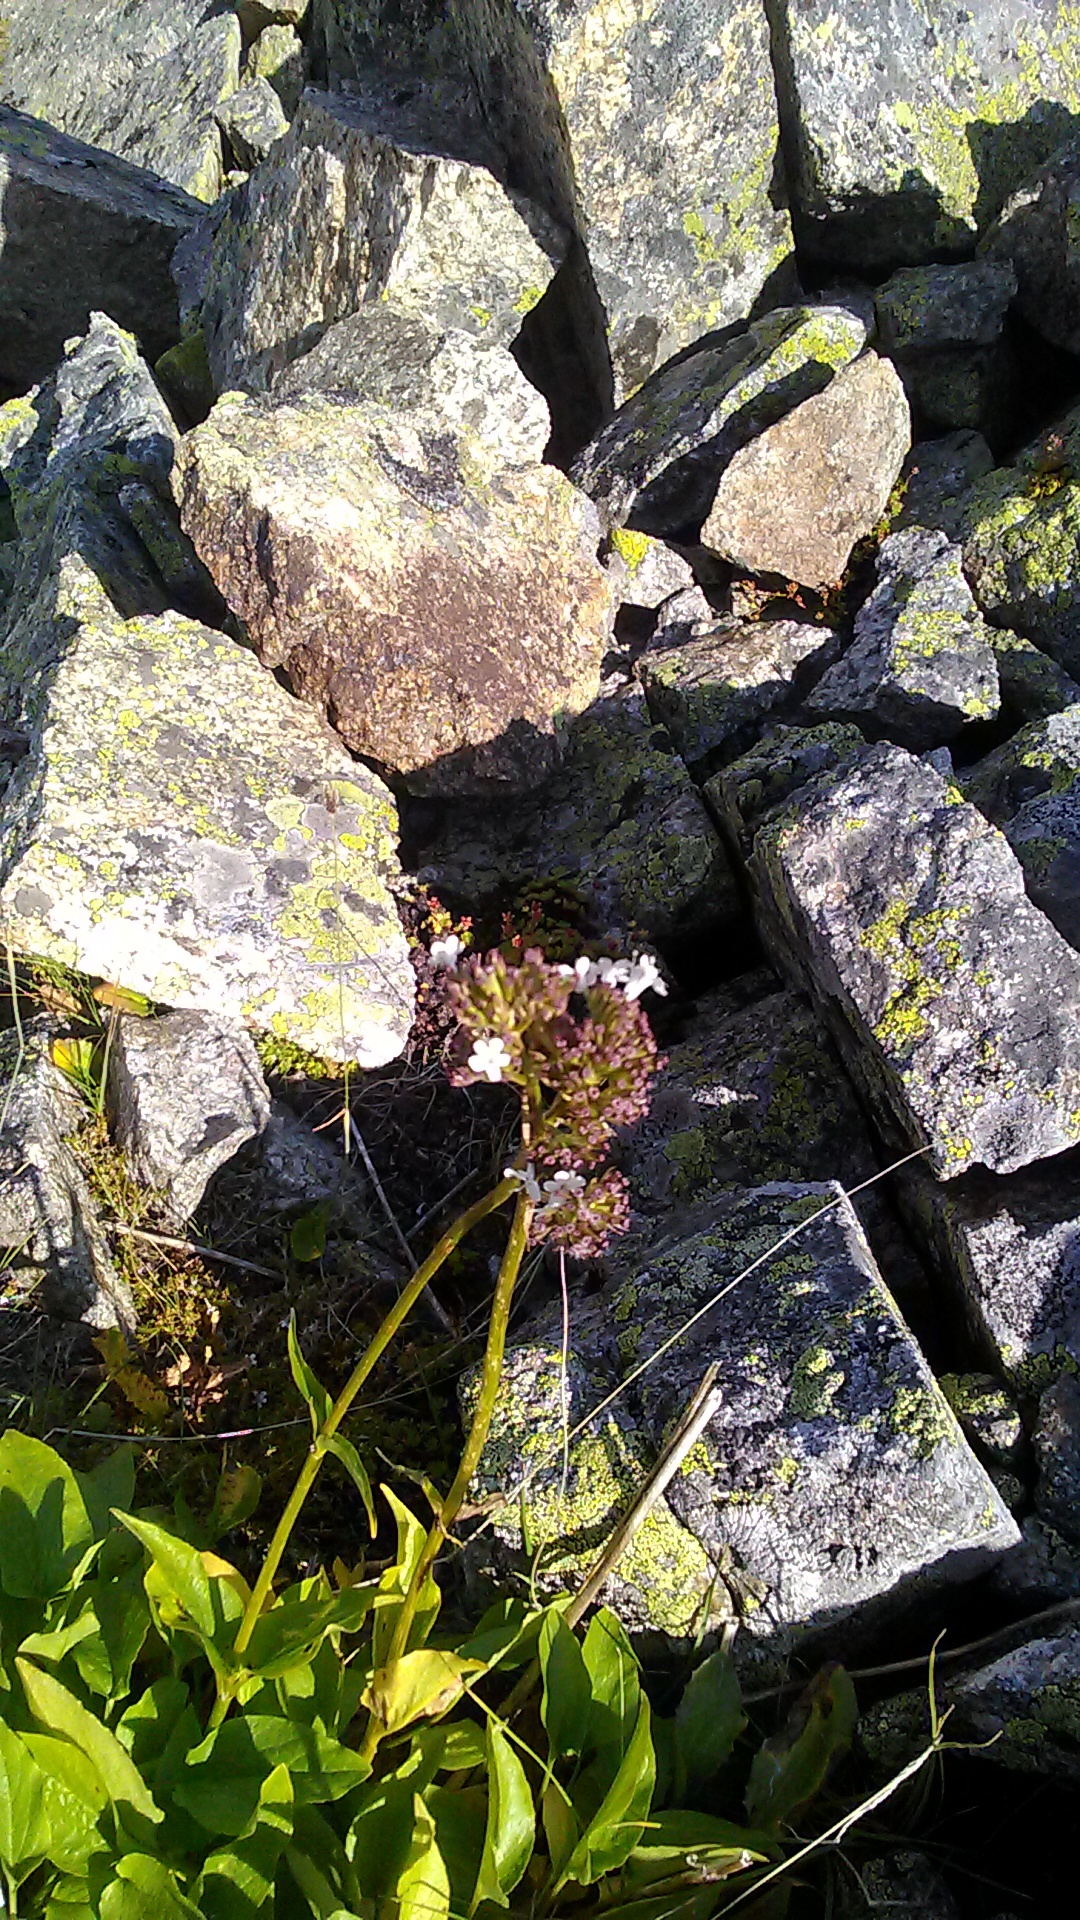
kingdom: Plantae
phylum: Tracheophyta
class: Magnoliopsida
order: Dipsacales
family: Caprifoliaceae
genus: Valeriana
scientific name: Valeriana alpestris
